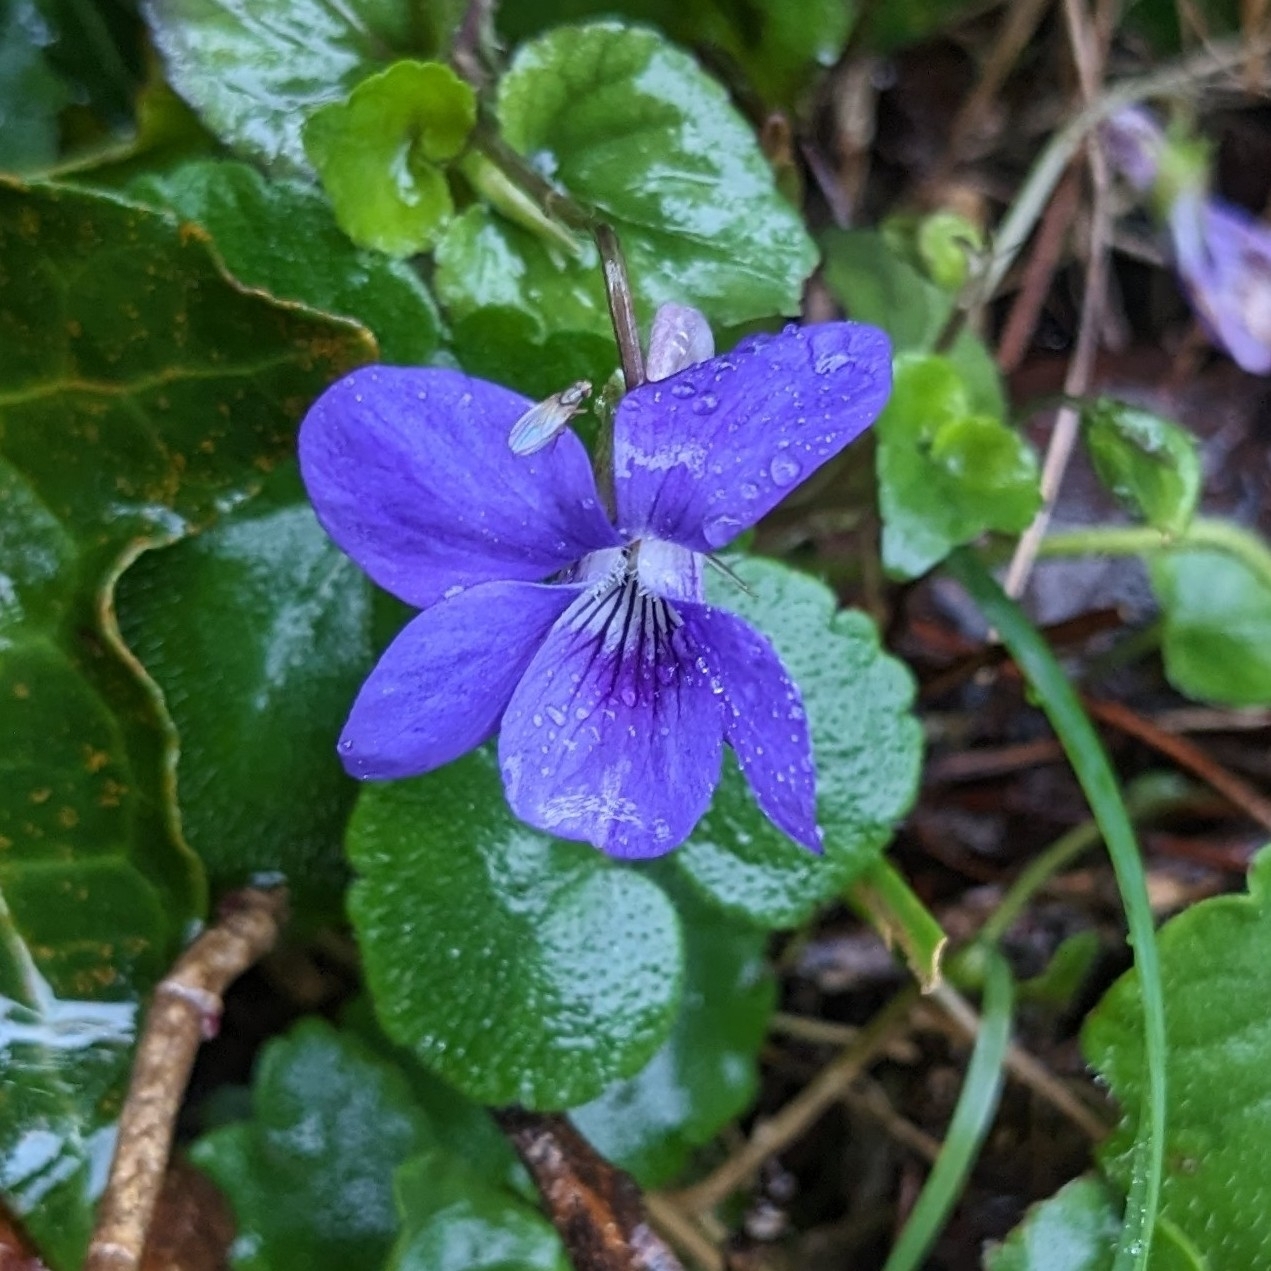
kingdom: Plantae
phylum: Tracheophyta
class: Magnoliopsida
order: Malpighiales
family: Violaceae
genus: Viola
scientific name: Viola riviniana
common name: Common dog-violet
